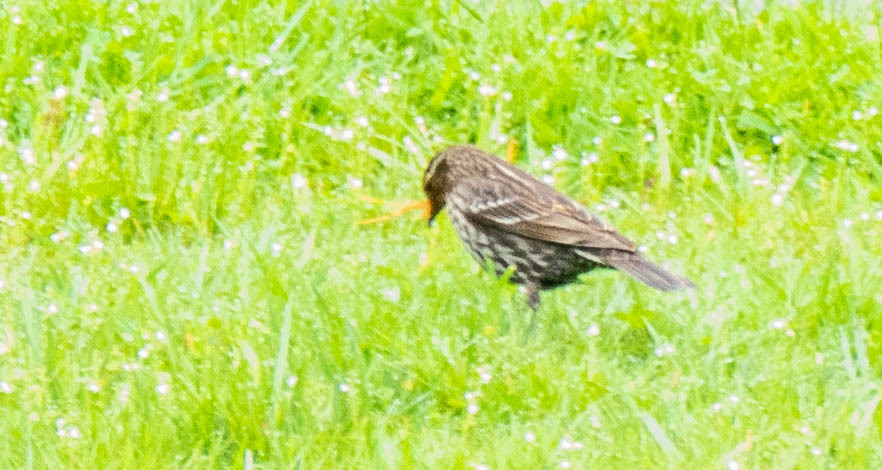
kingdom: Animalia
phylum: Chordata
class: Aves
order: Passeriformes
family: Icteridae
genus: Agelaius
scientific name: Agelaius phoeniceus
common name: Red-winged blackbird
